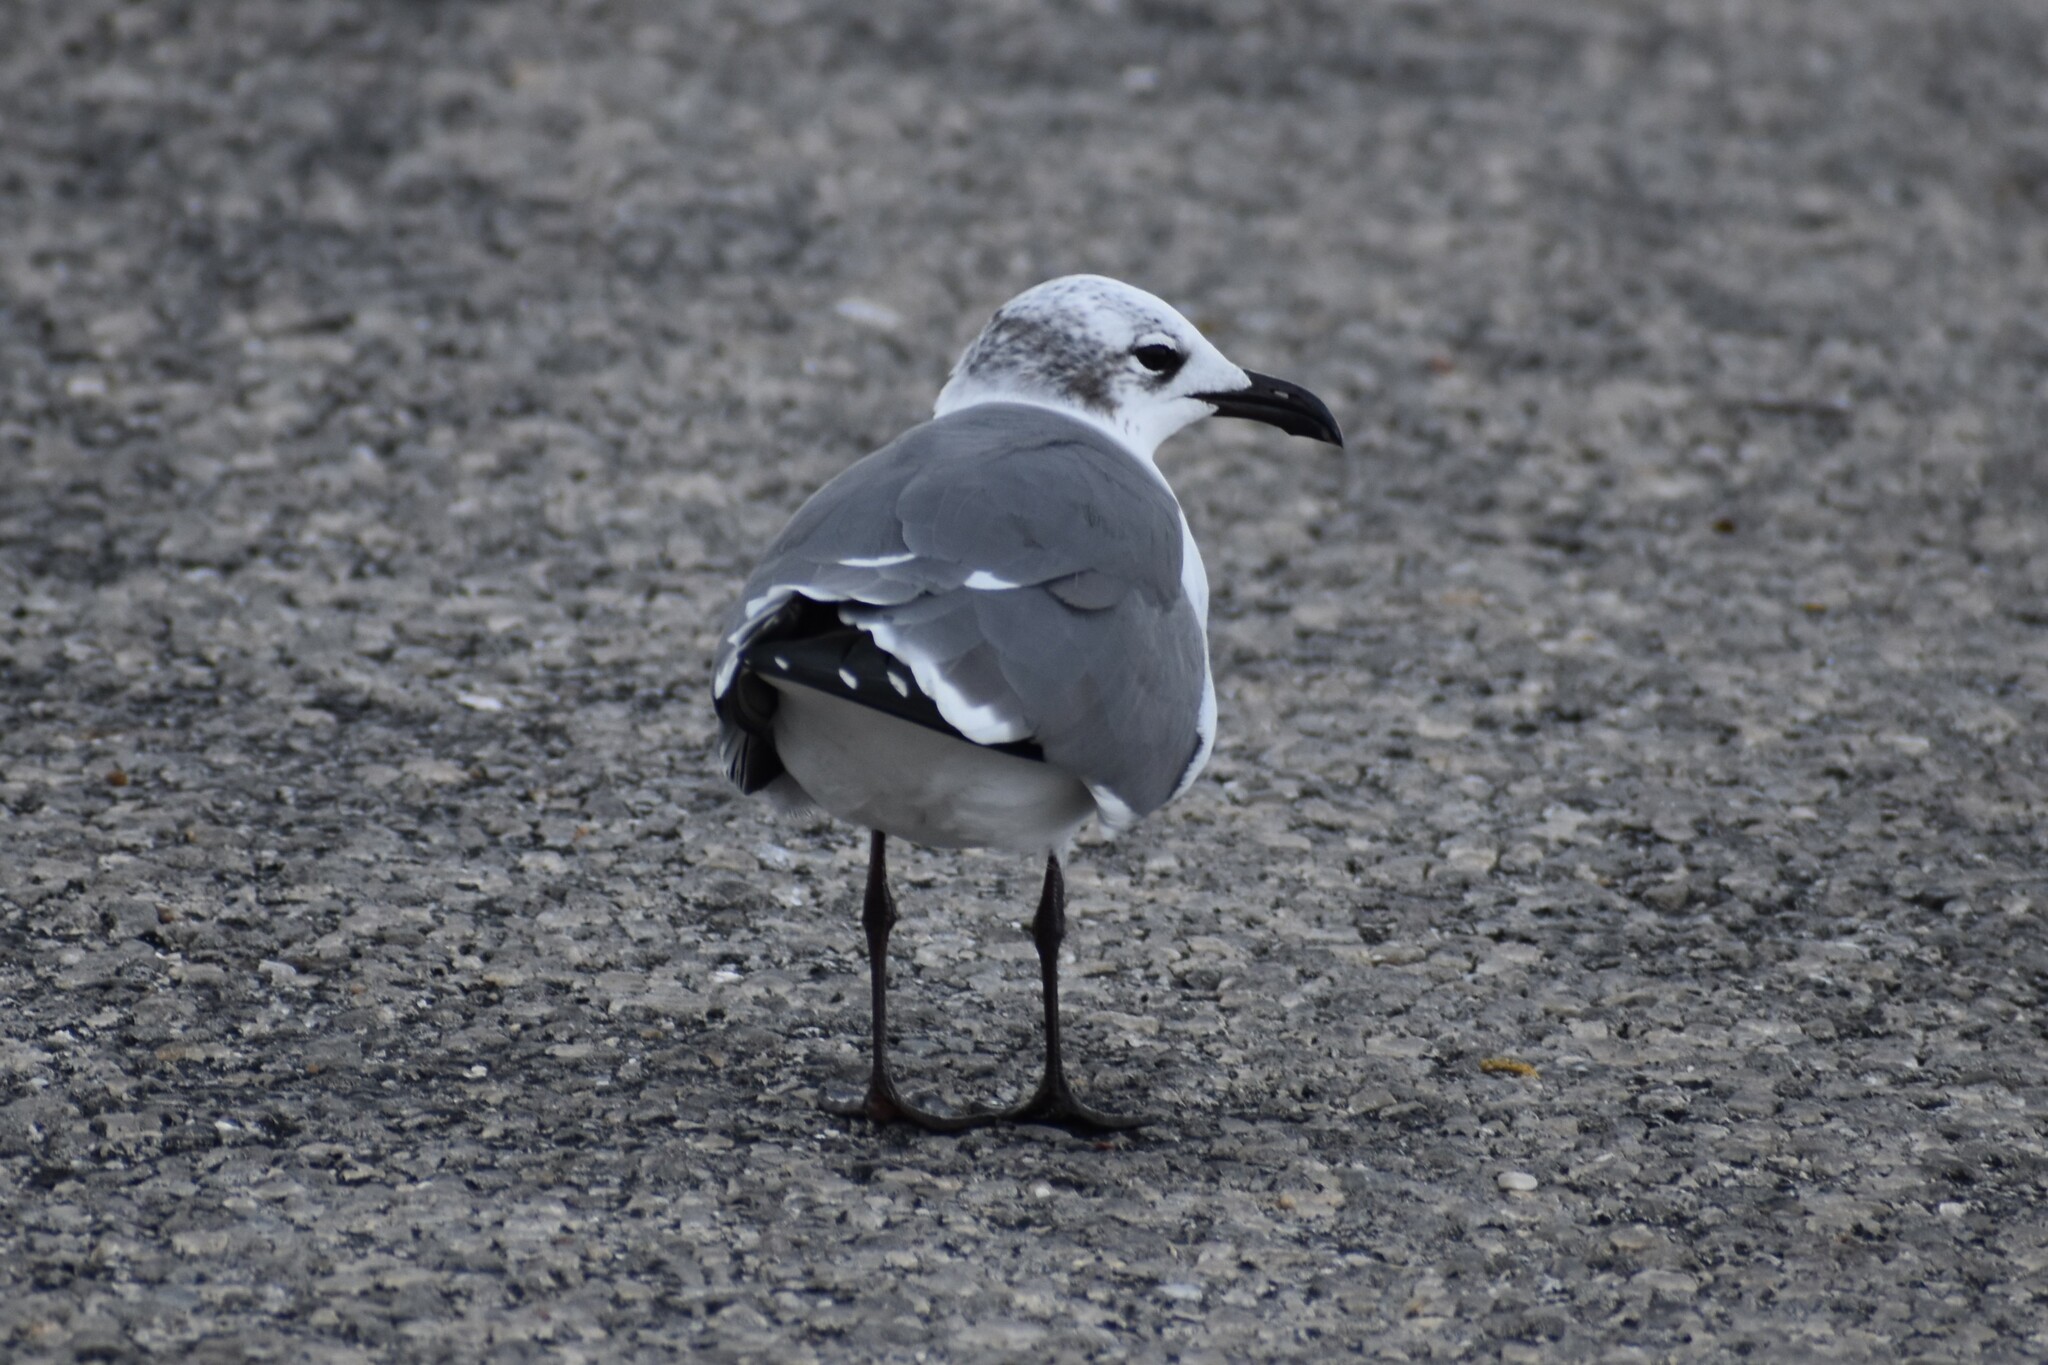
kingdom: Animalia
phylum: Chordata
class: Aves
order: Charadriiformes
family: Laridae
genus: Leucophaeus
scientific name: Leucophaeus atricilla
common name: Laughing gull
